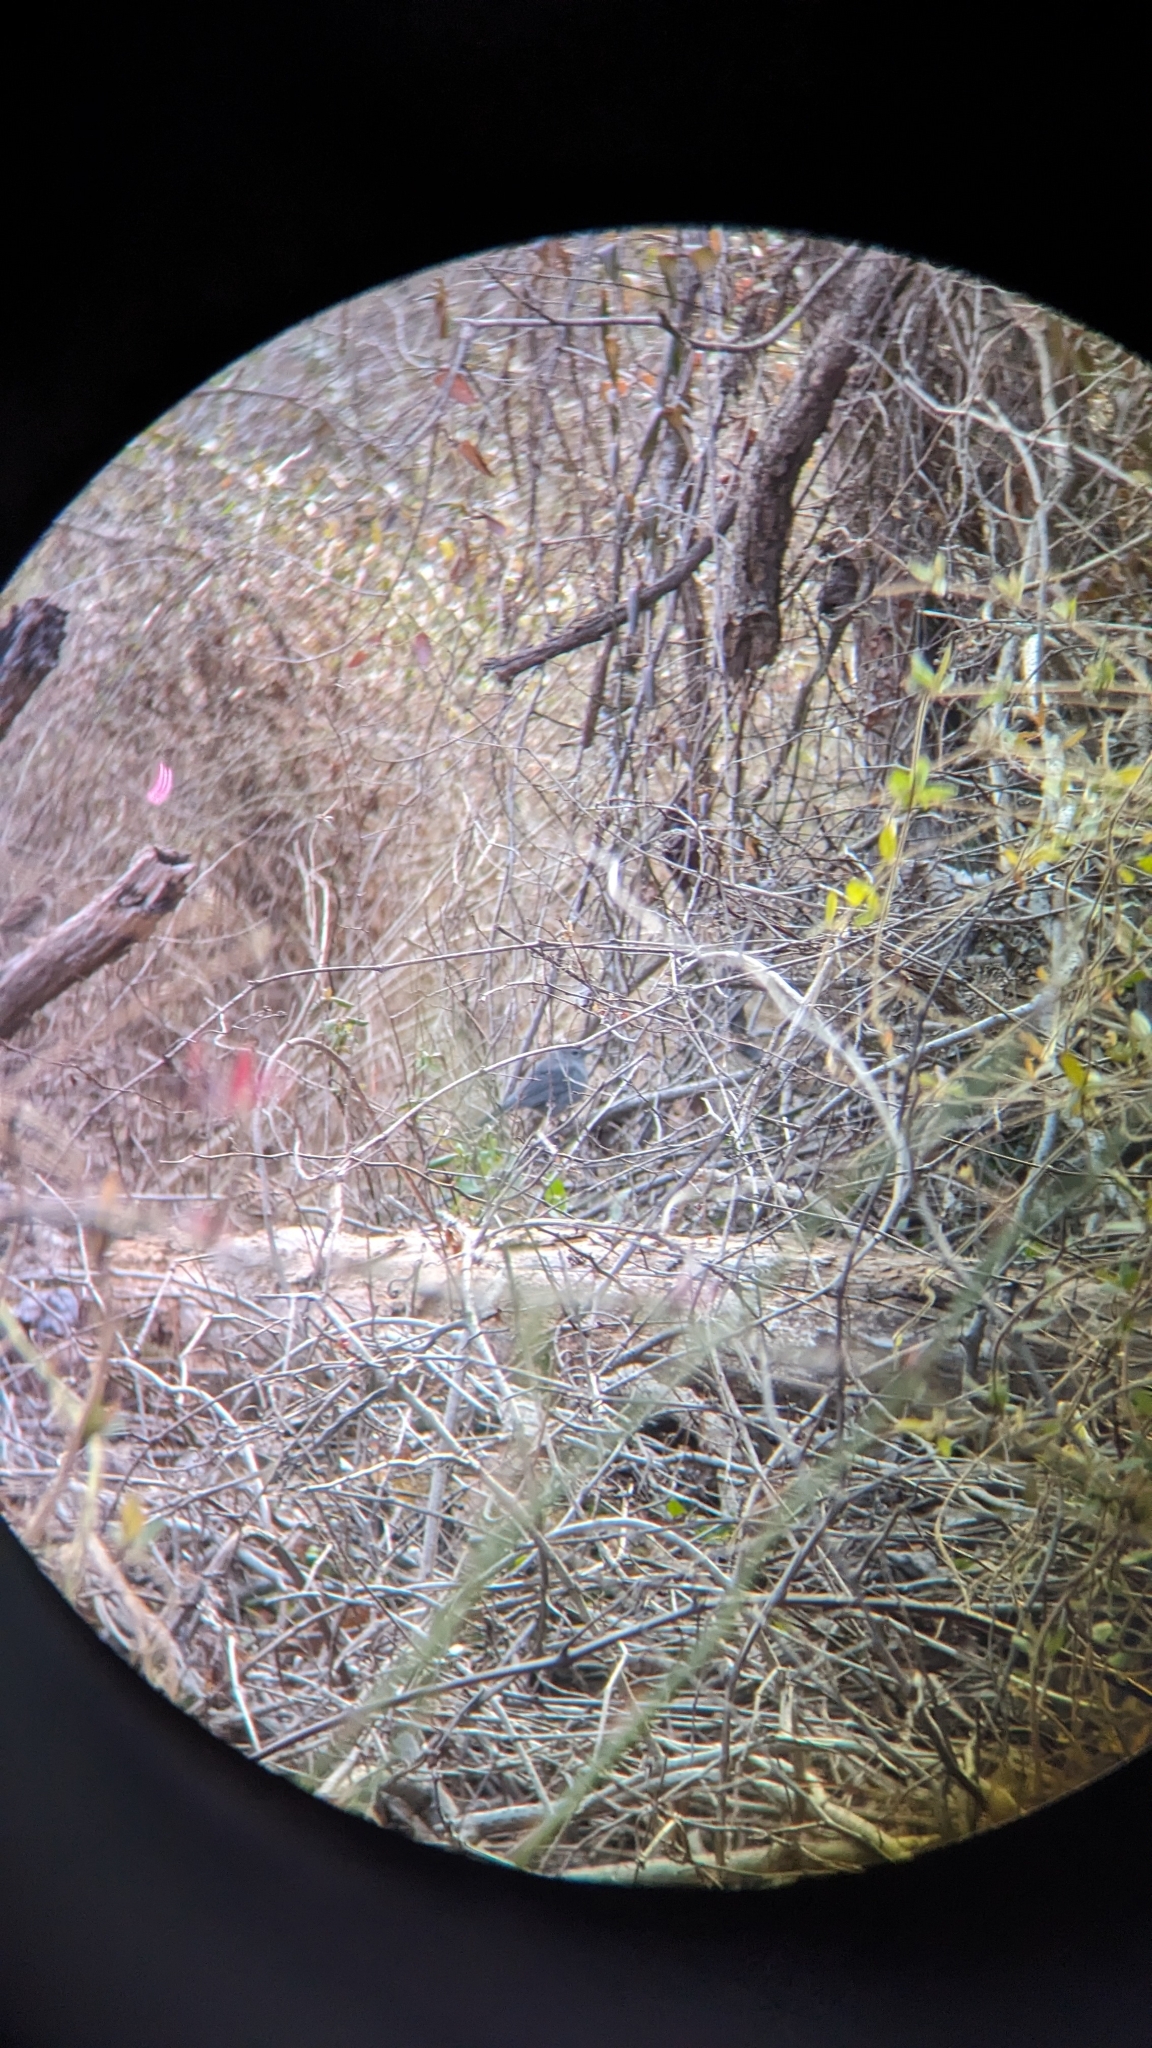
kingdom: Animalia
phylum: Chordata
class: Aves
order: Passeriformes
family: Mimidae
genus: Dumetella
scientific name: Dumetella carolinensis
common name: Gray catbird
